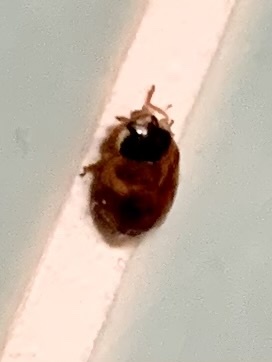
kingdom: Animalia
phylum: Arthropoda
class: Insecta
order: Coleoptera
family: Coccinellidae
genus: Adalia
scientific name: Adalia decempunctata
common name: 10-spot ladybird
